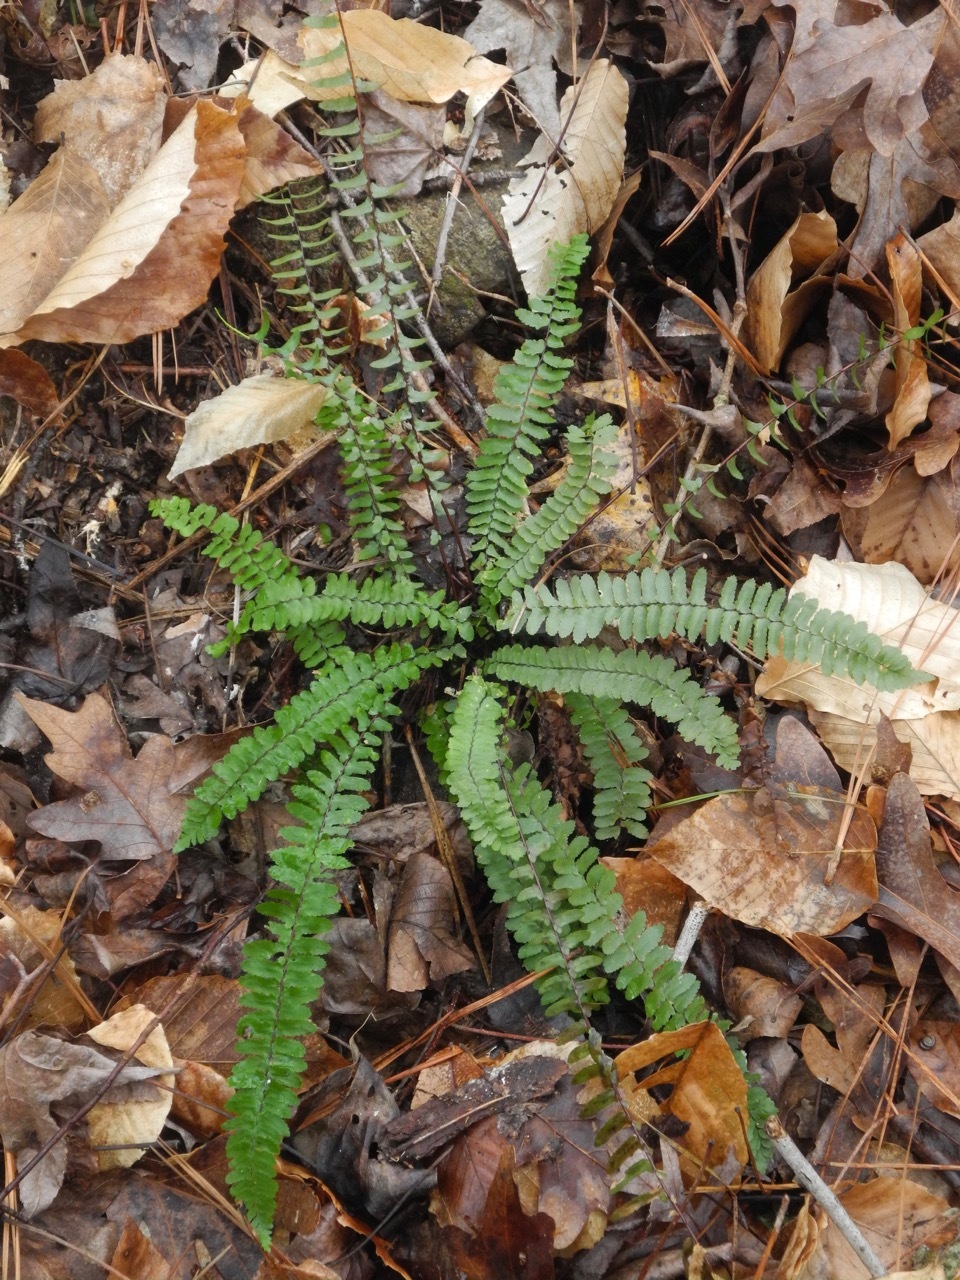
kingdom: Plantae
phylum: Tracheophyta
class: Polypodiopsida
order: Polypodiales
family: Aspleniaceae
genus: Asplenium
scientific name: Asplenium platyneuron
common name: Ebony spleenwort
